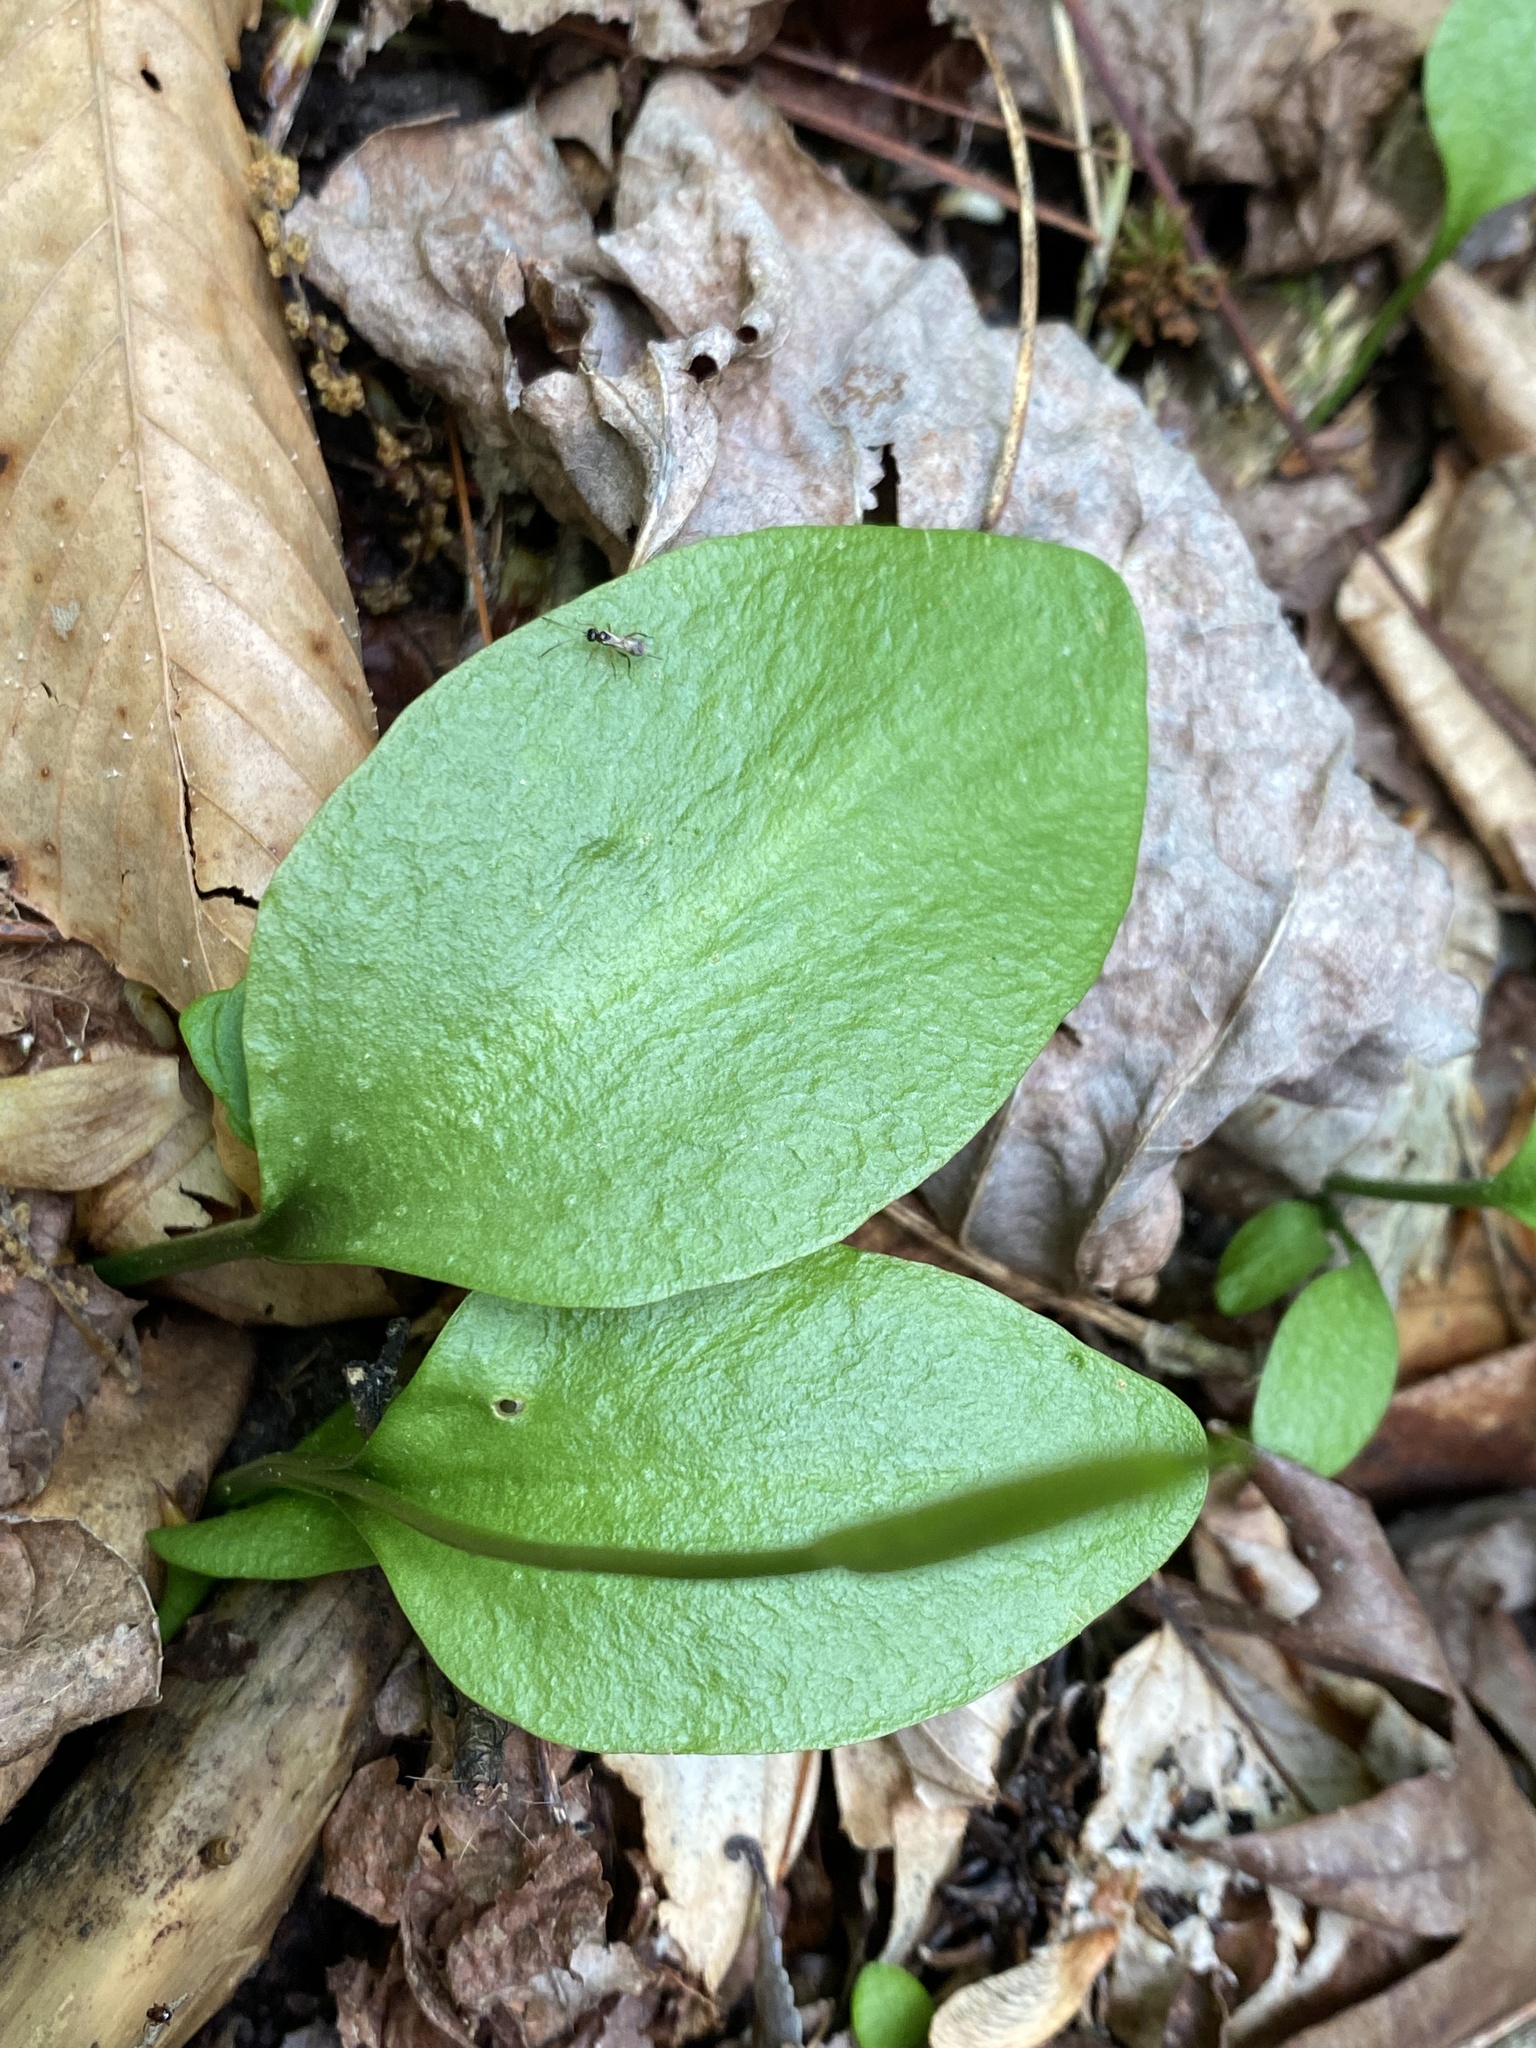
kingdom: Plantae
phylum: Tracheophyta
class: Polypodiopsida
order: Ophioglossales
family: Ophioglossaceae
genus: Ophioglossum
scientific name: Ophioglossum vulgatum
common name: Adder's-tongue
